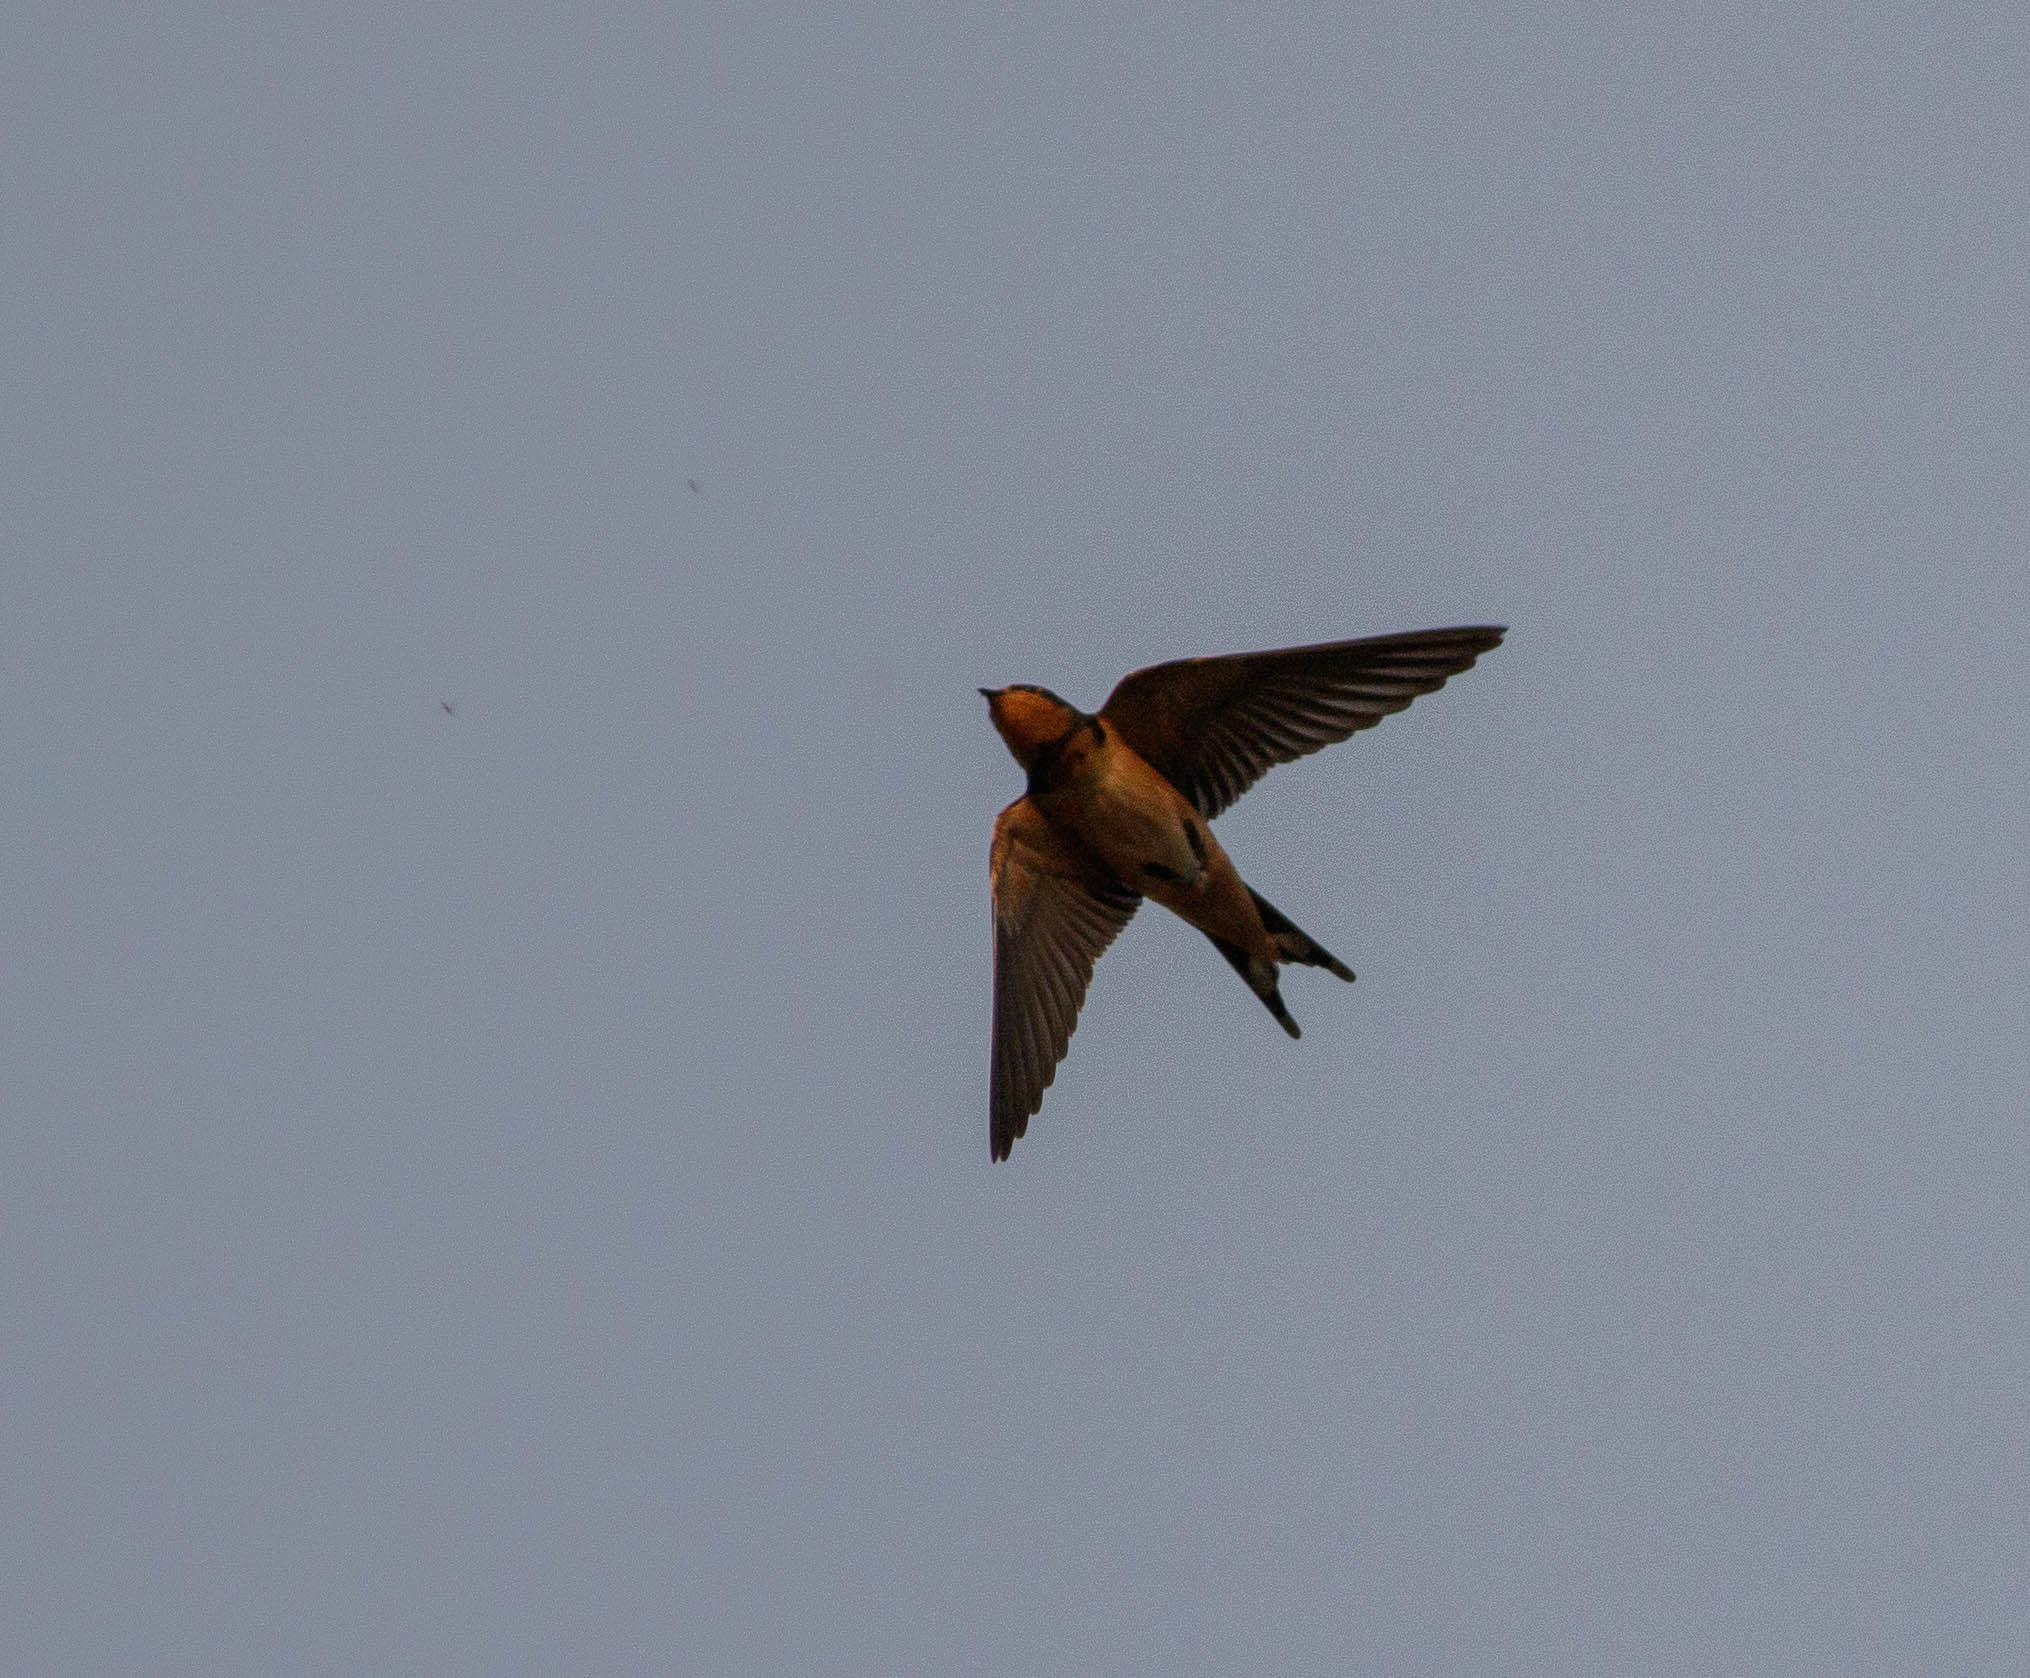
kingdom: Animalia
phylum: Chordata
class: Aves
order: Passeriformes
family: Hirundinidae
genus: Hirundo
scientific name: Hirundo rustica
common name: Barn swallow
